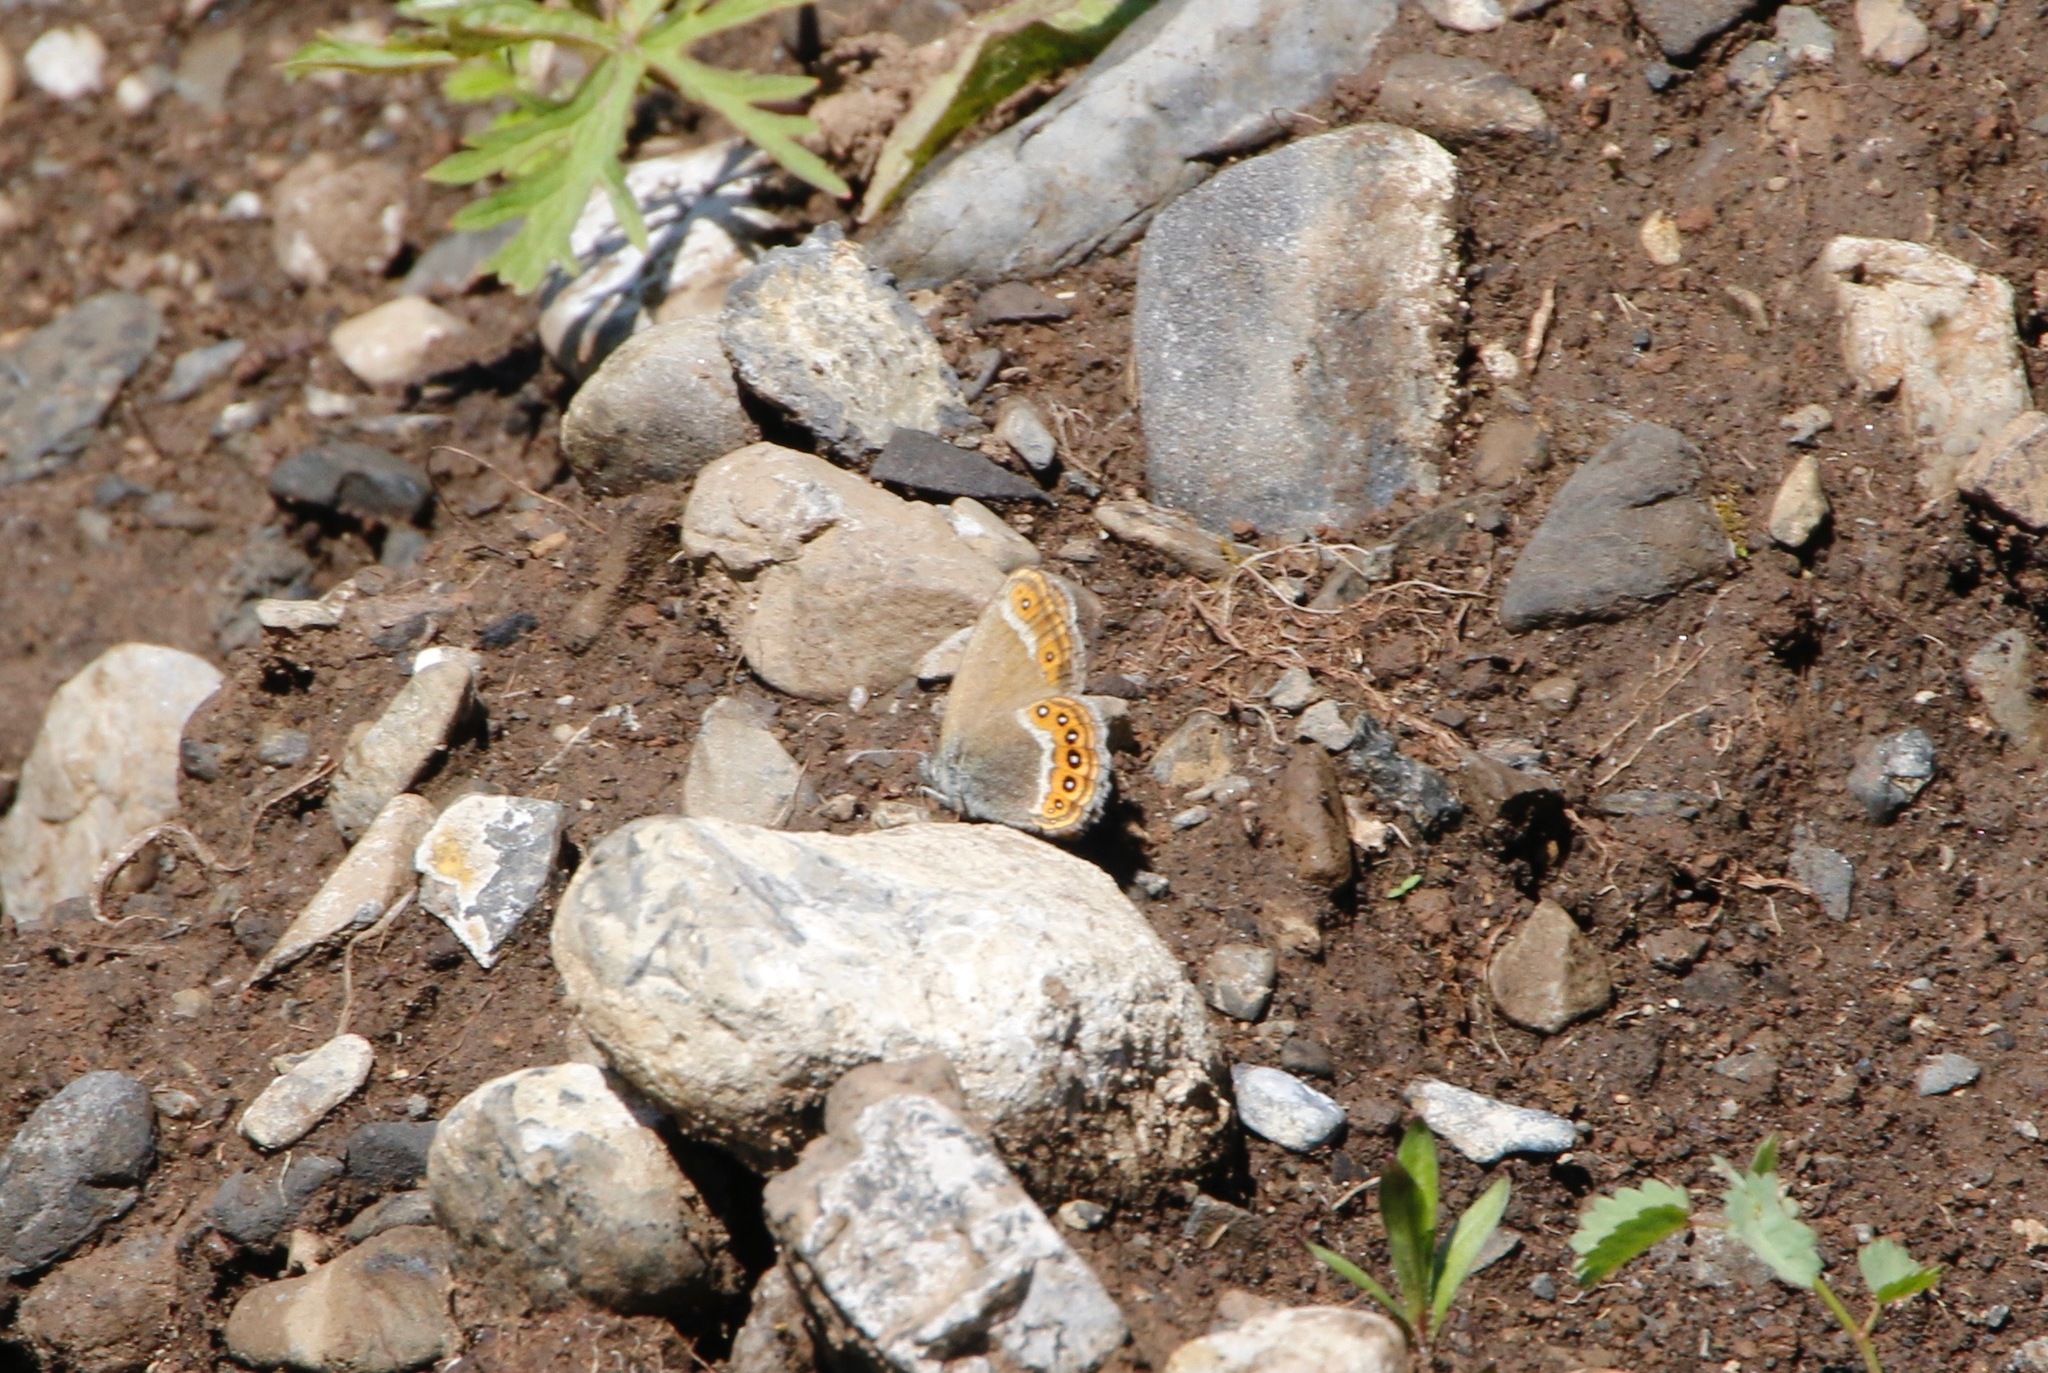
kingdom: Animalia
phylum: Arthropoda
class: Insecta
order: Lepidoptera
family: Nymphalidae
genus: Coenonympha
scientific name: Coenonympha hero
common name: Scarce heath
